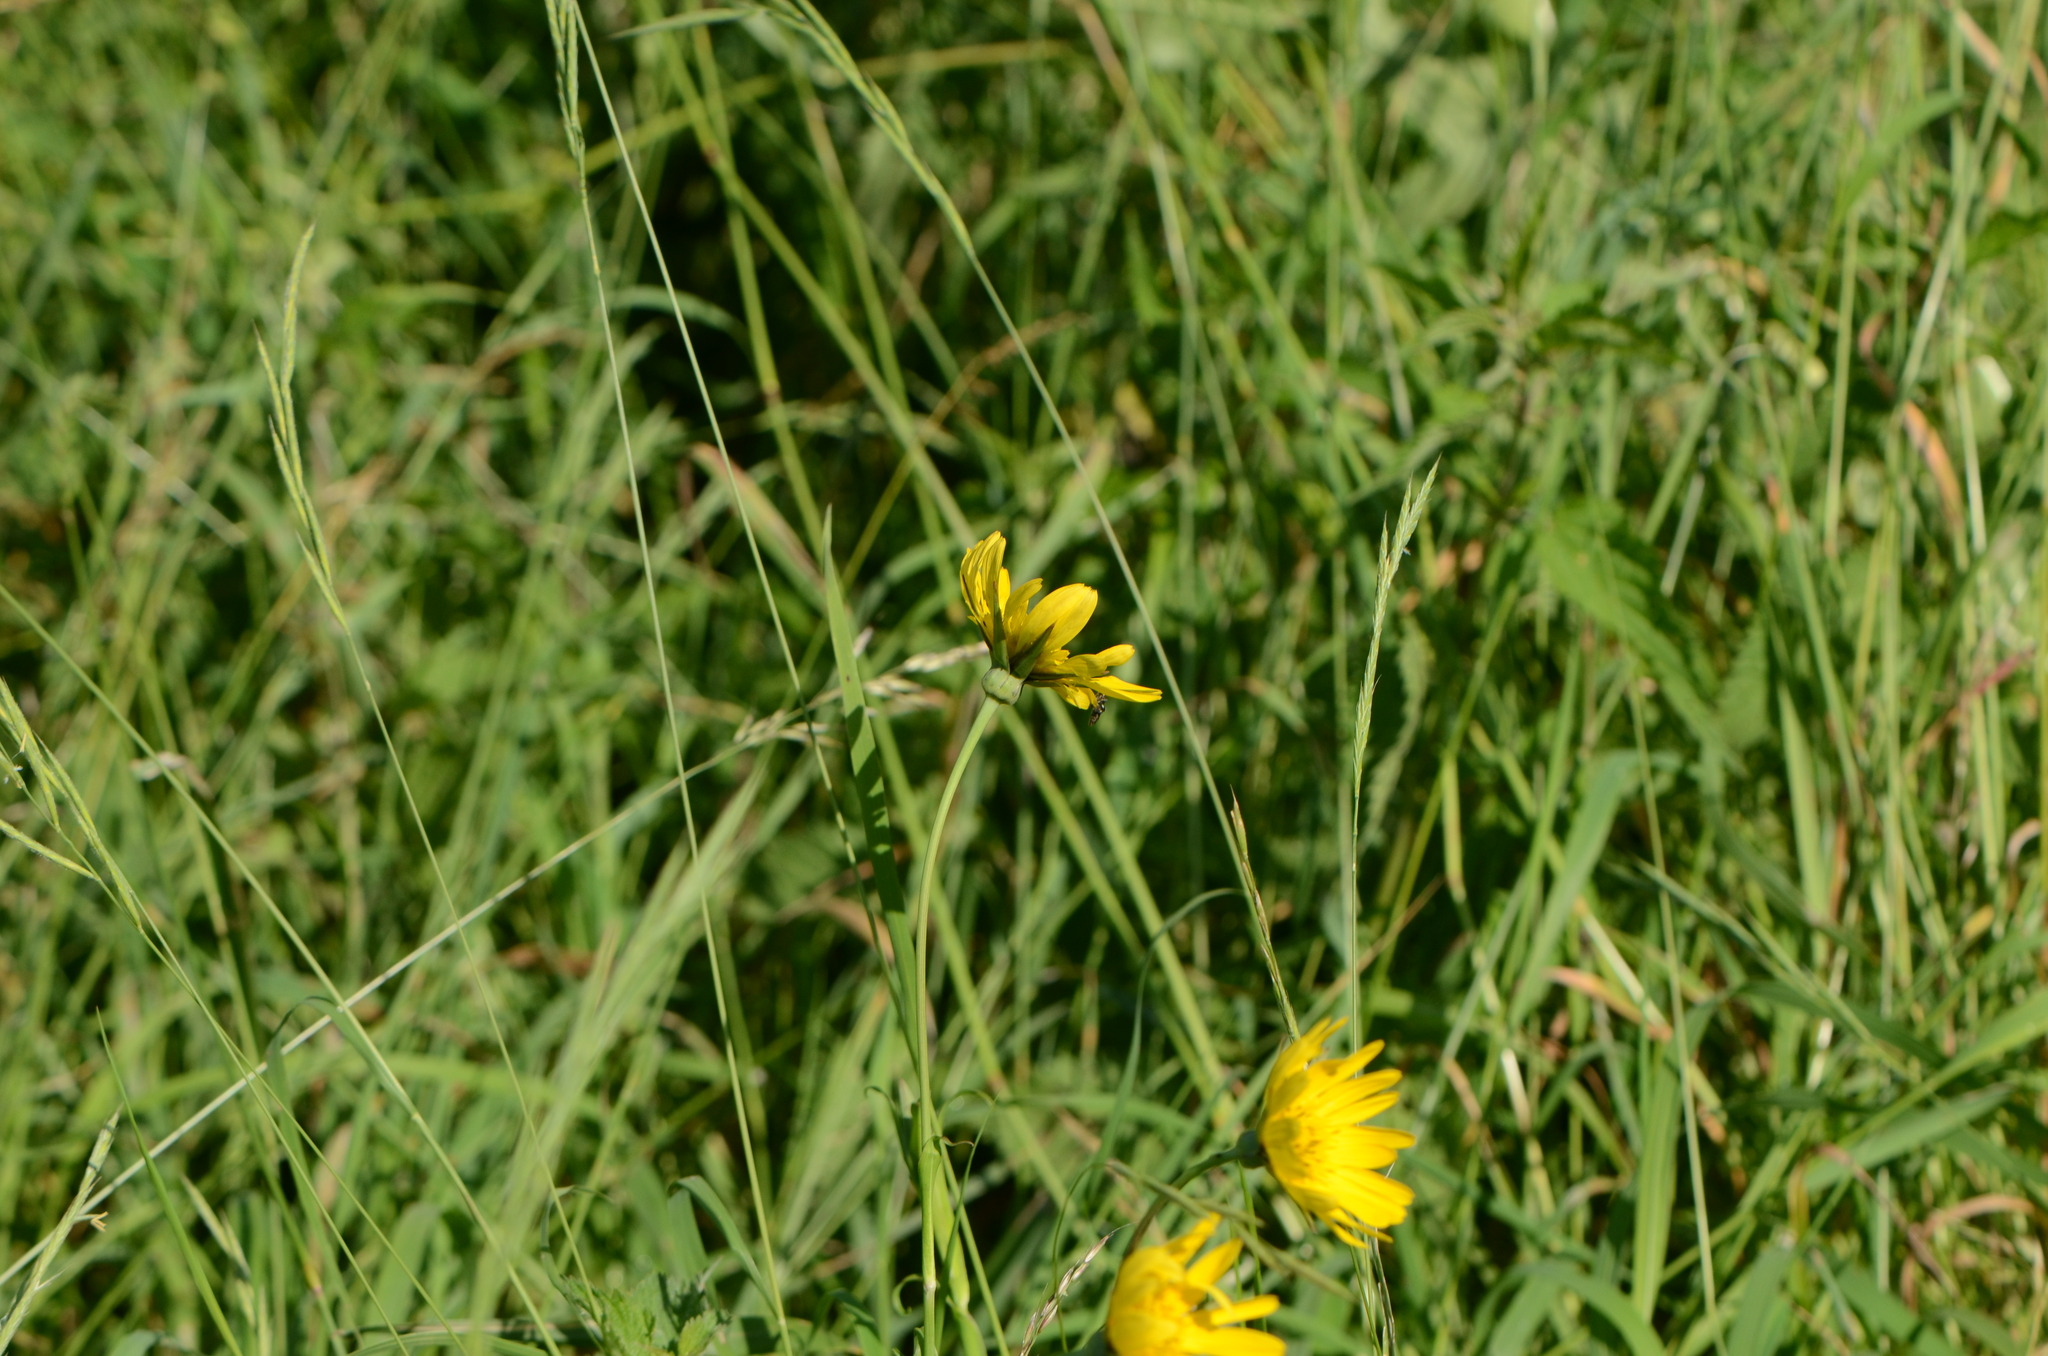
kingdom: Plantae
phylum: Tracheophyta
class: Magnoliopsida
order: Asterales
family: Asteraceae
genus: Tragopogon
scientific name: Tragopogon orientalis
